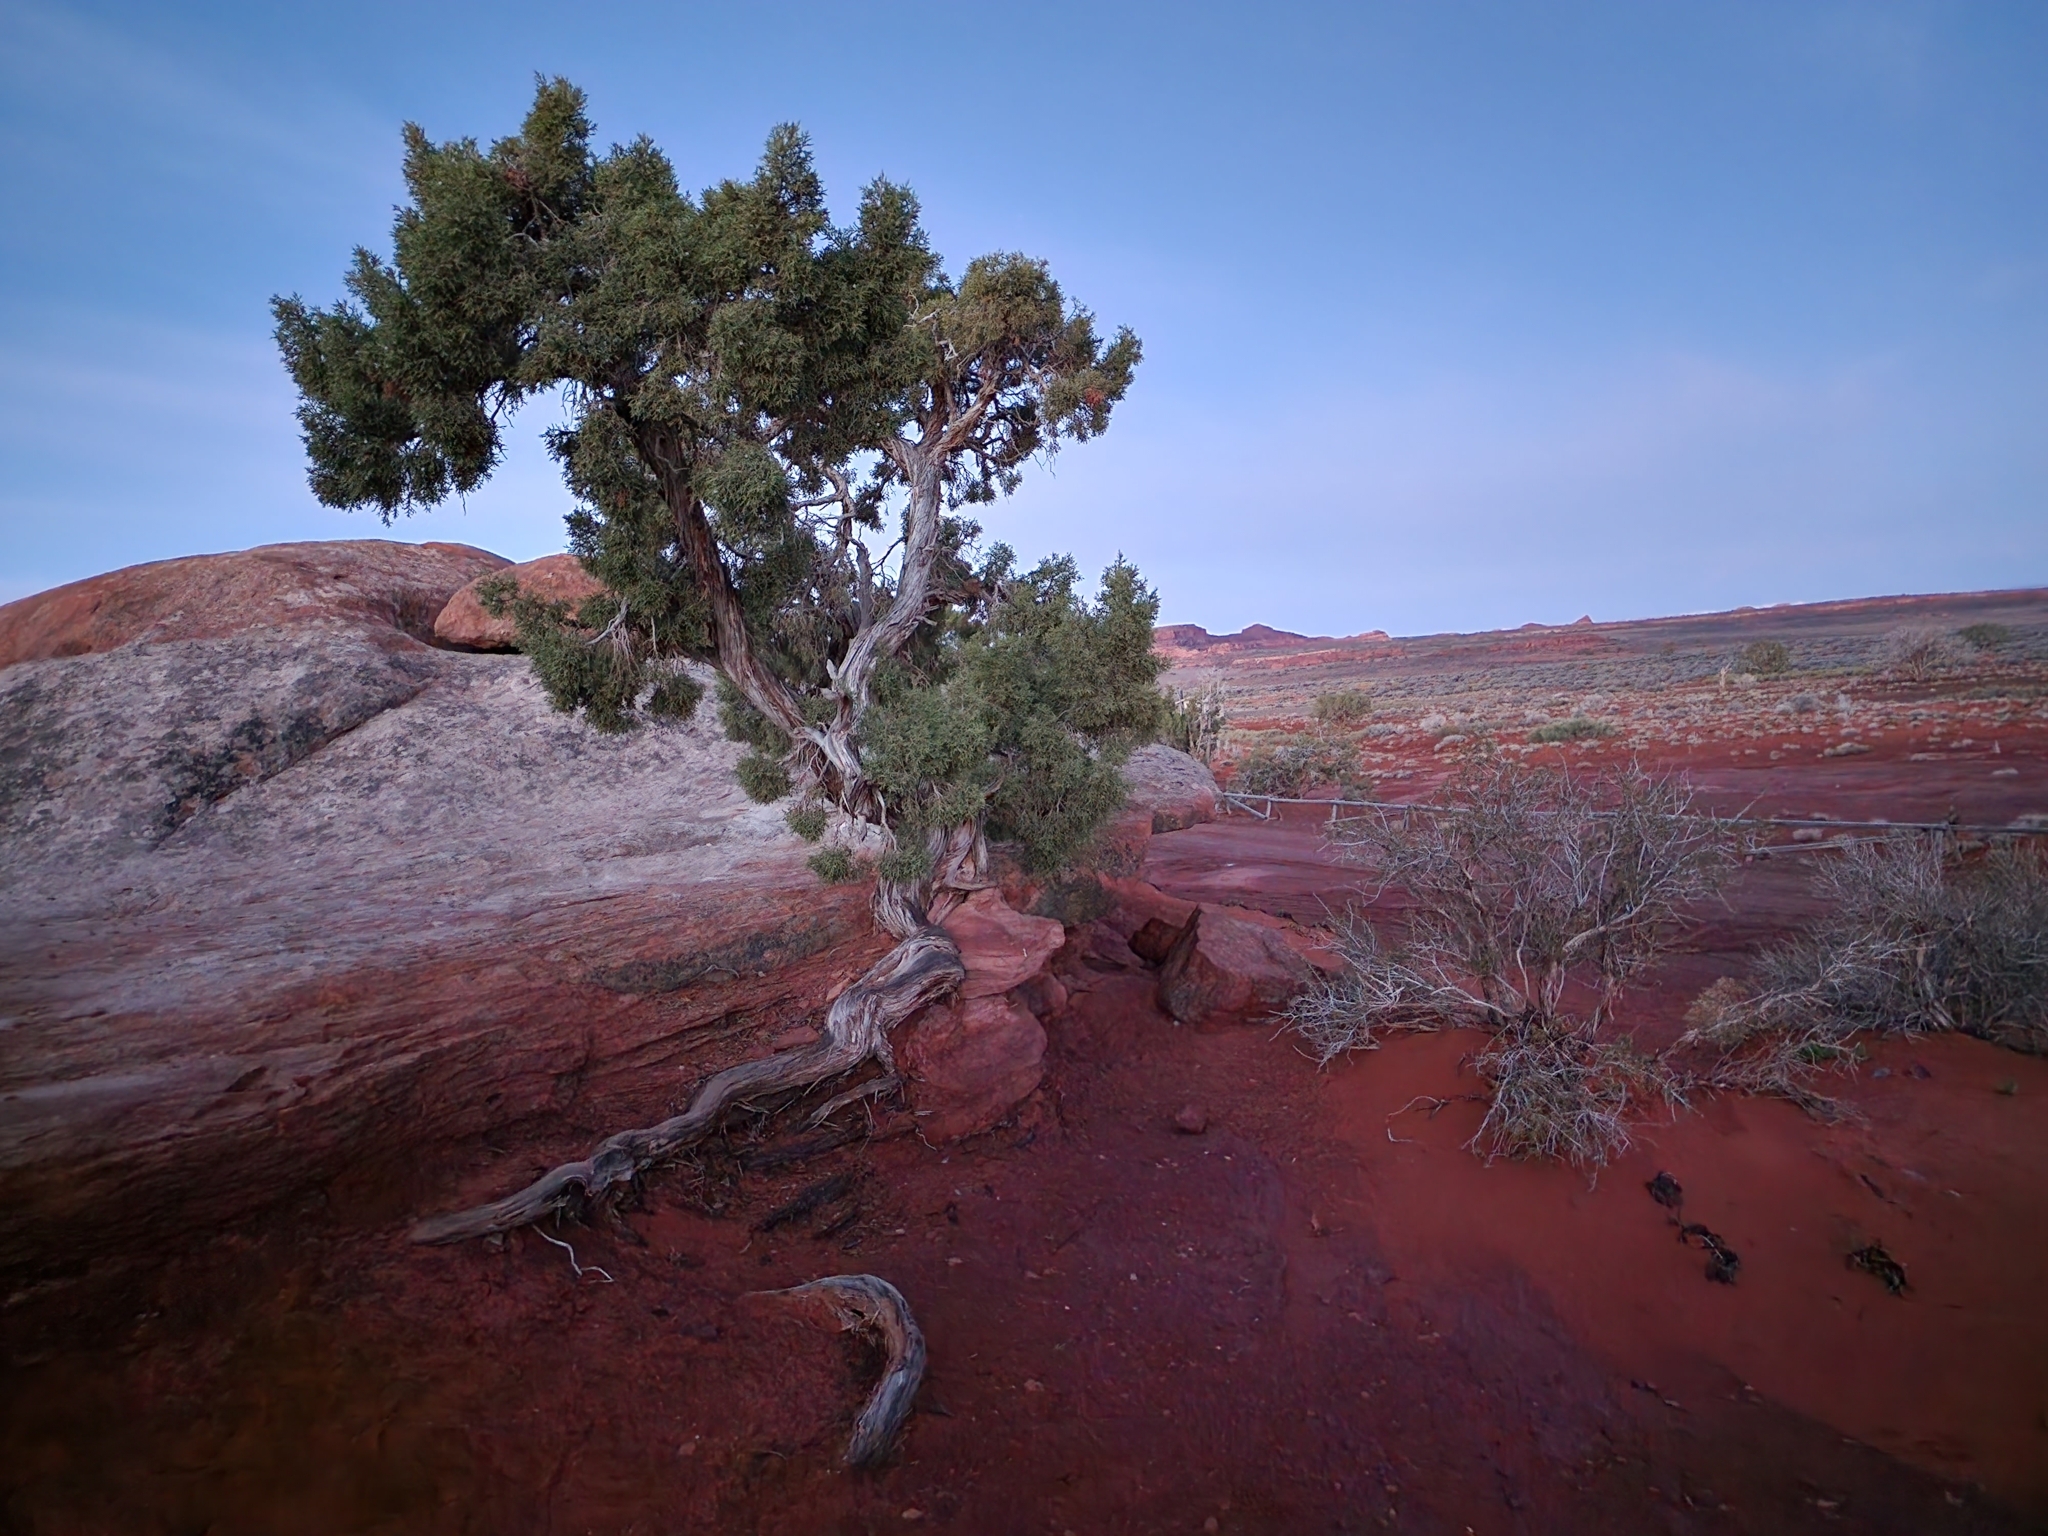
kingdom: Plantae
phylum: Tracheophyta
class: Pinopsida
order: Pinales
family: Cupressaceae
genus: Juniperus
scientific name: Juniperus osteosperma
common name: Utah juniper
